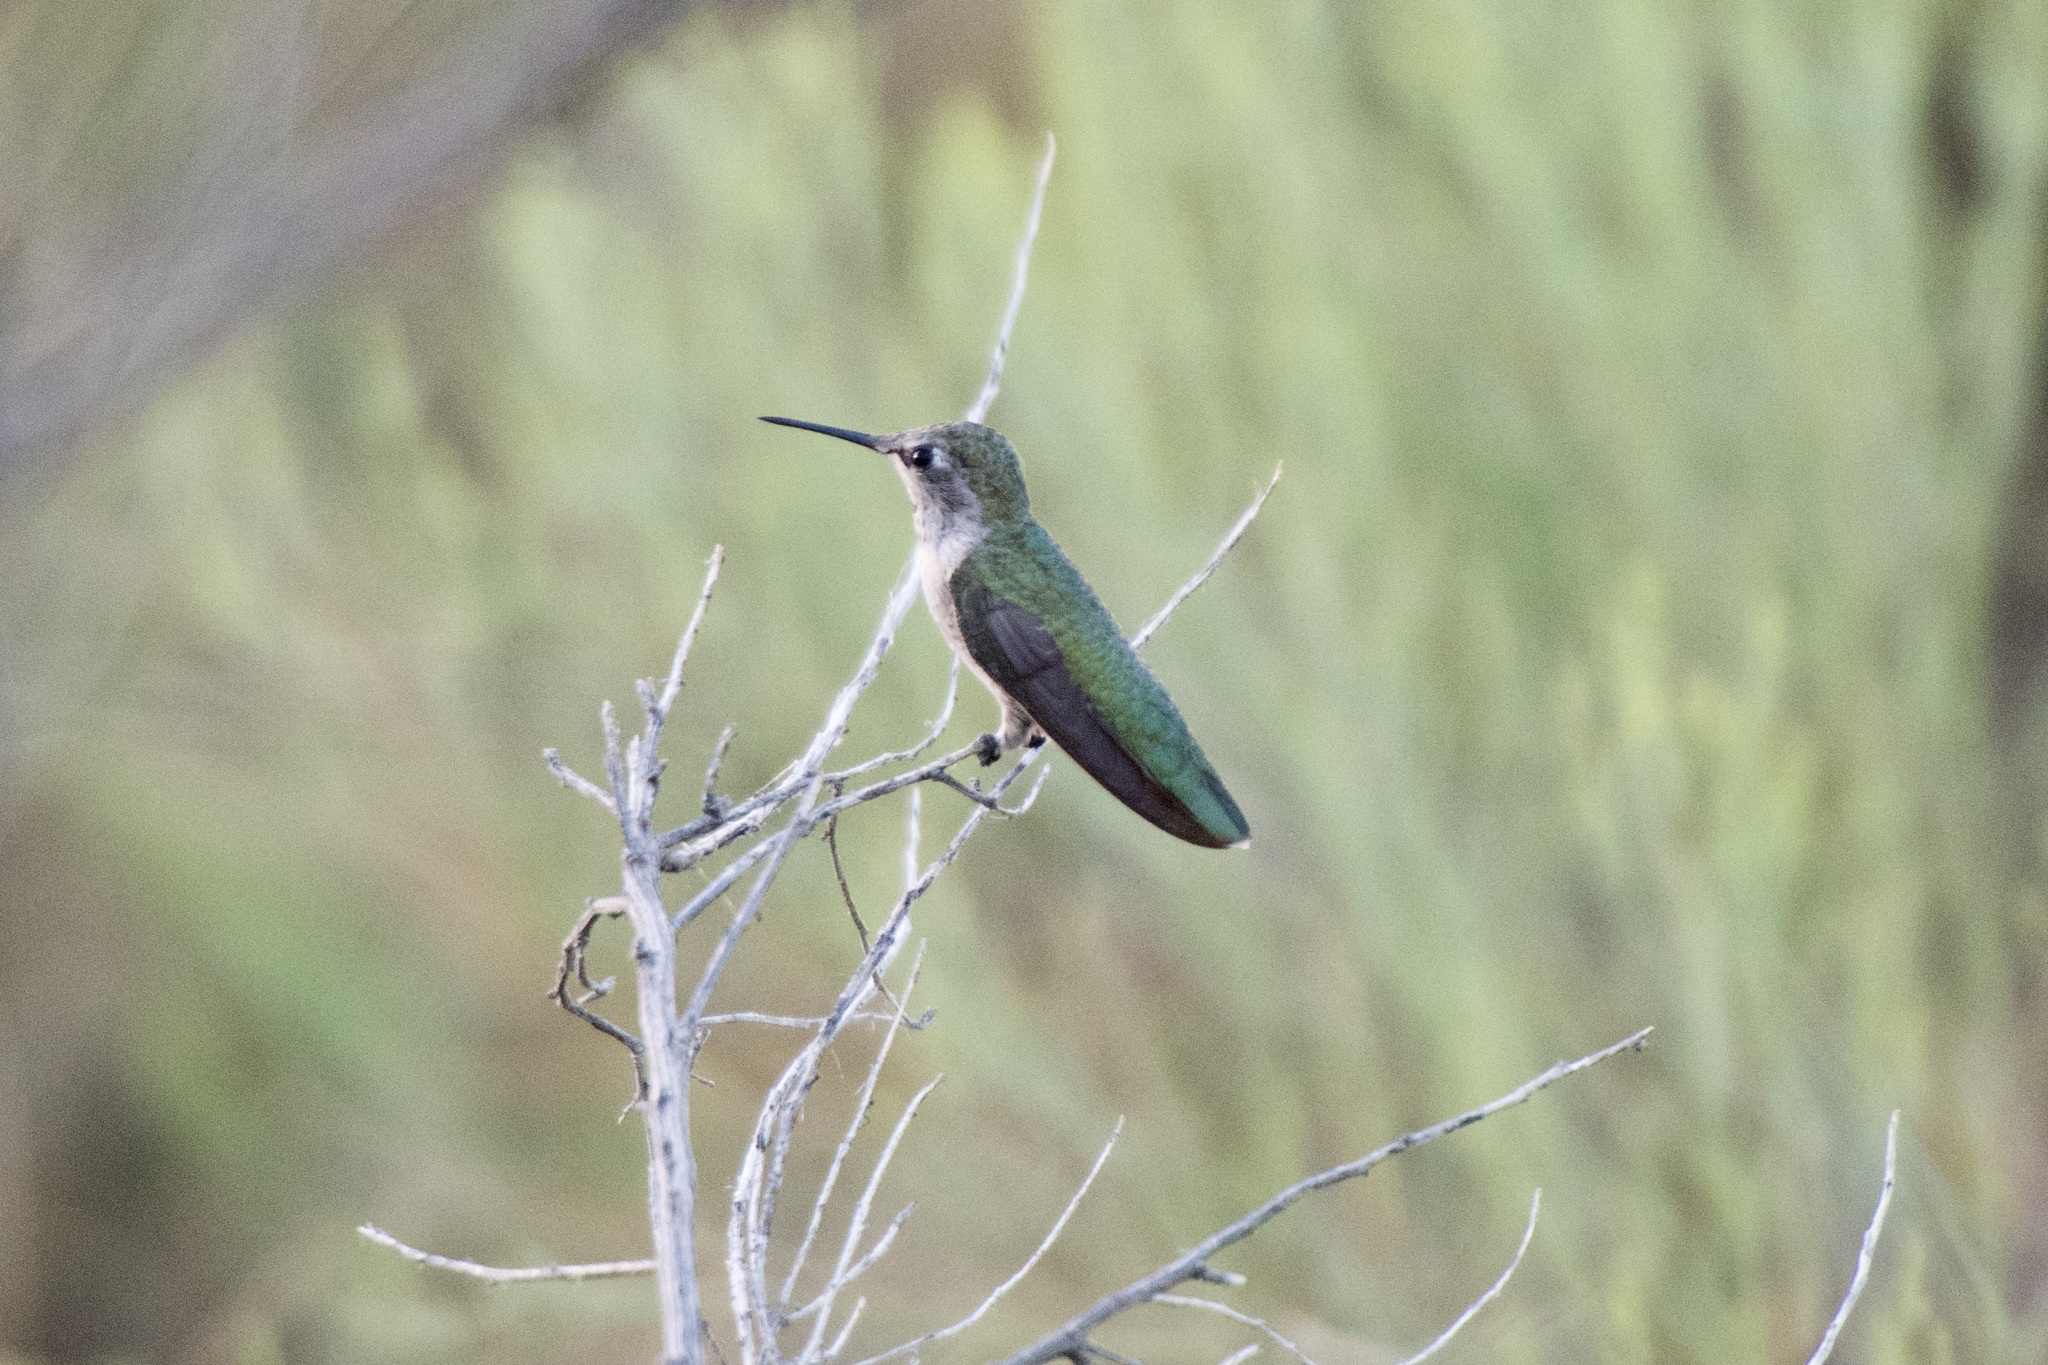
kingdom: Animalia
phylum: Chordata
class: Aves
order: Apodiformes
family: Trochilidae
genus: Calypte
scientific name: Calypte costae
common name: Costa's hummingbird
